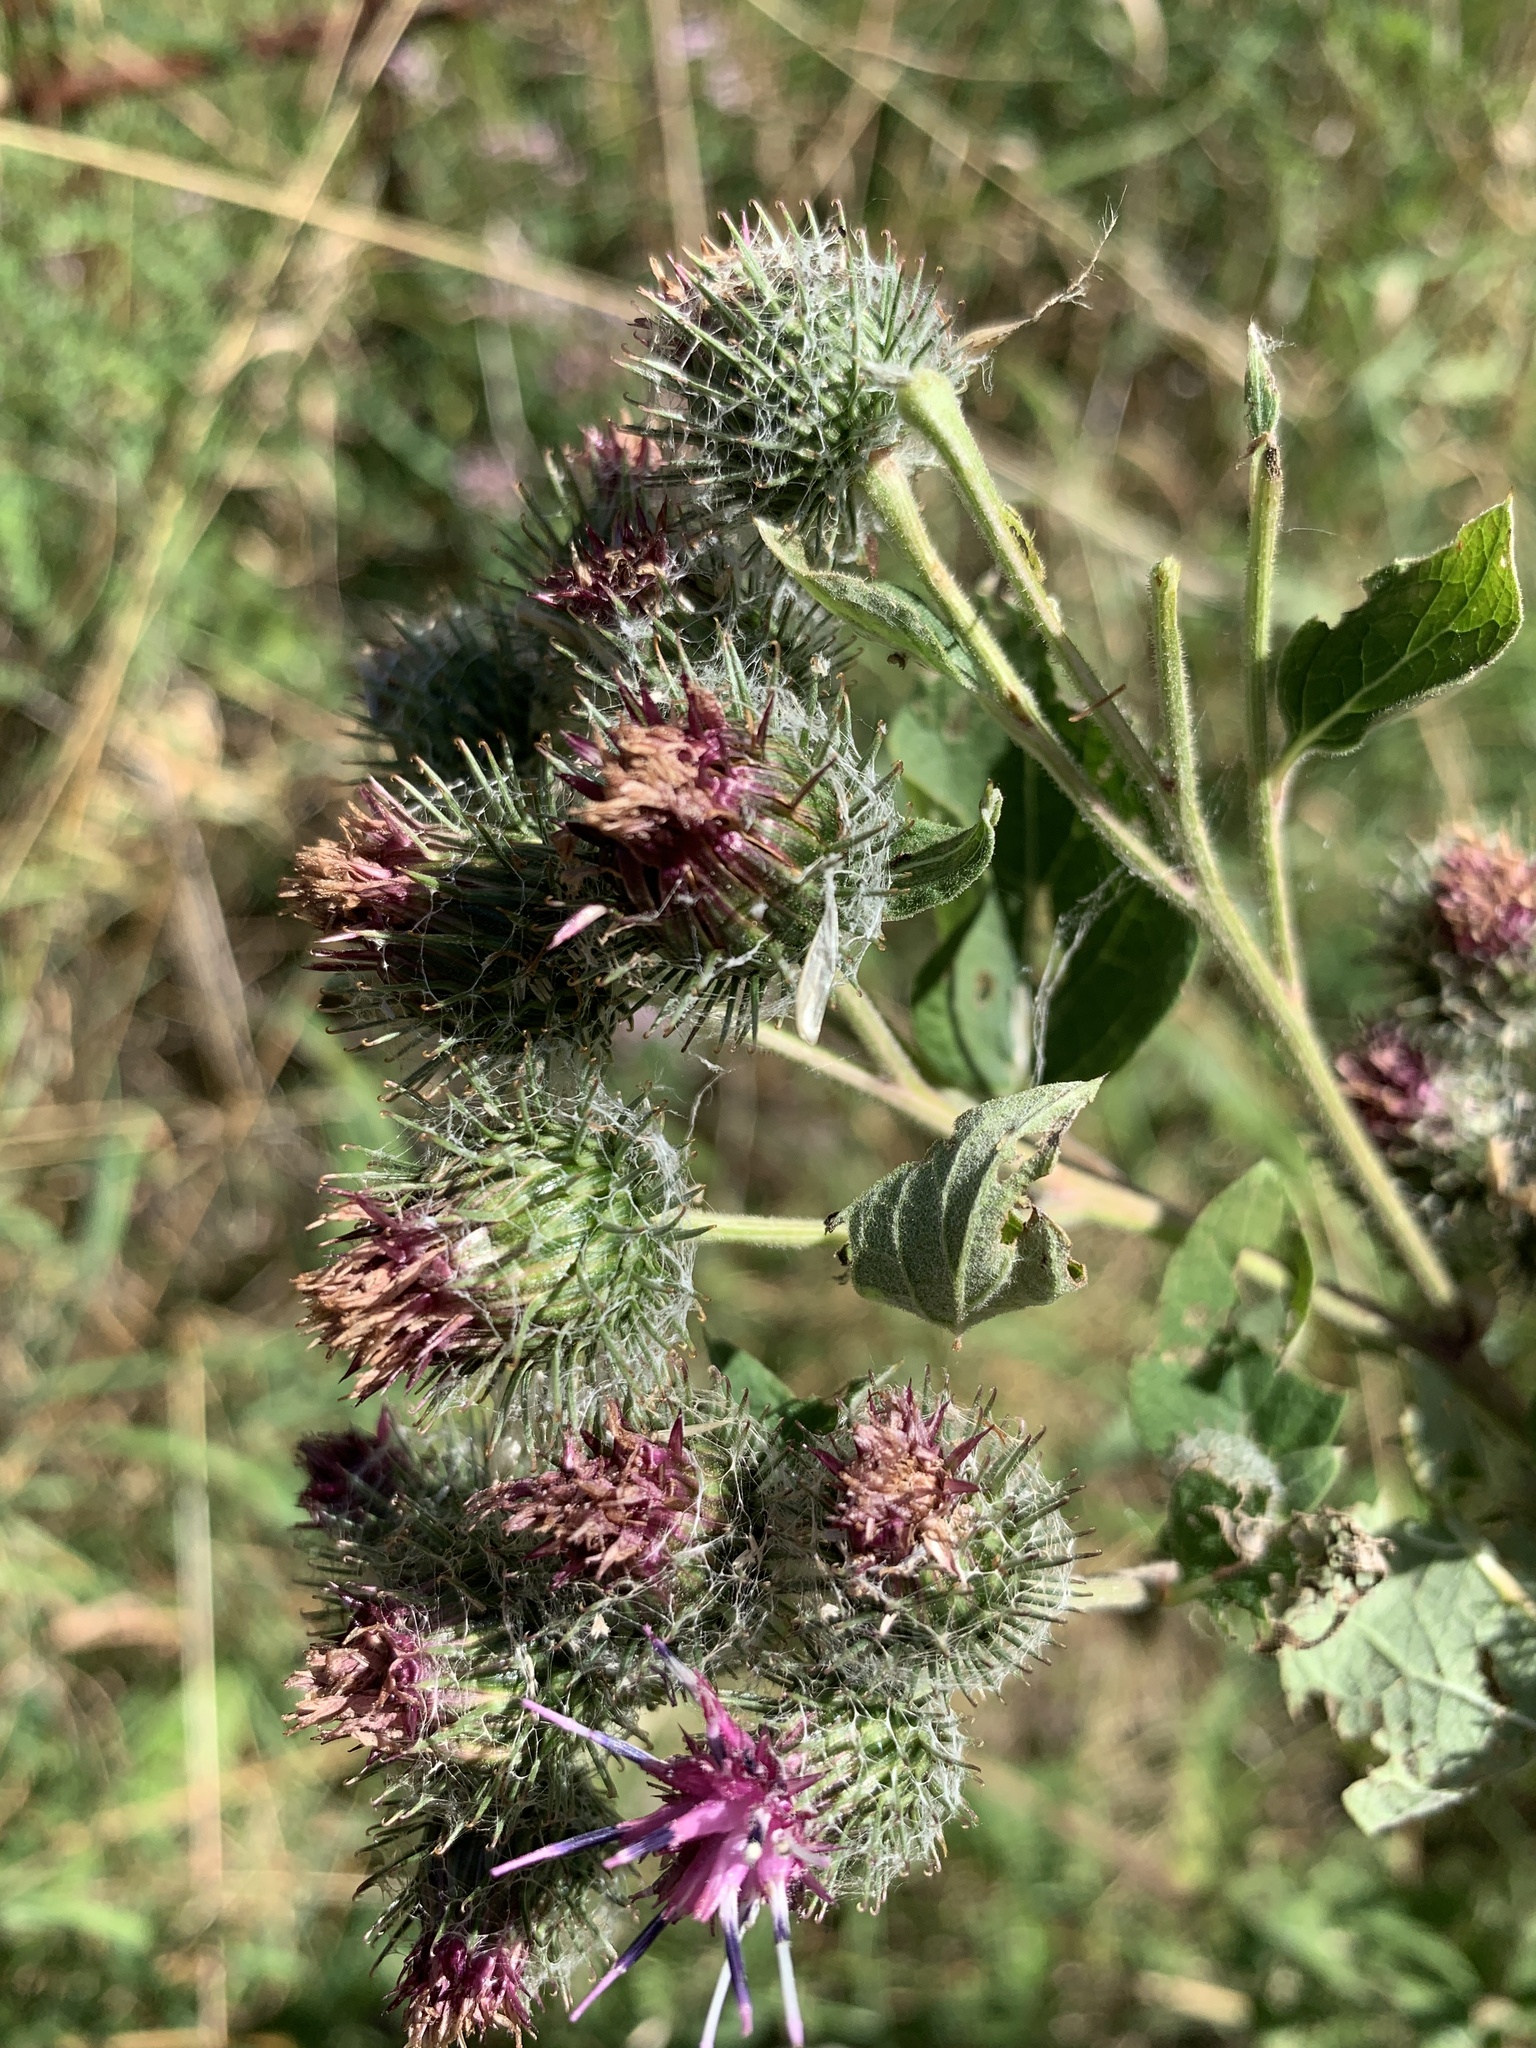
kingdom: Plantae
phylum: Tracheophyta
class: Magnoliopsida
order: Asterales
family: Asteraceae
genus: Arctium
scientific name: Arctium tomentosum
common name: Woolly burdock
